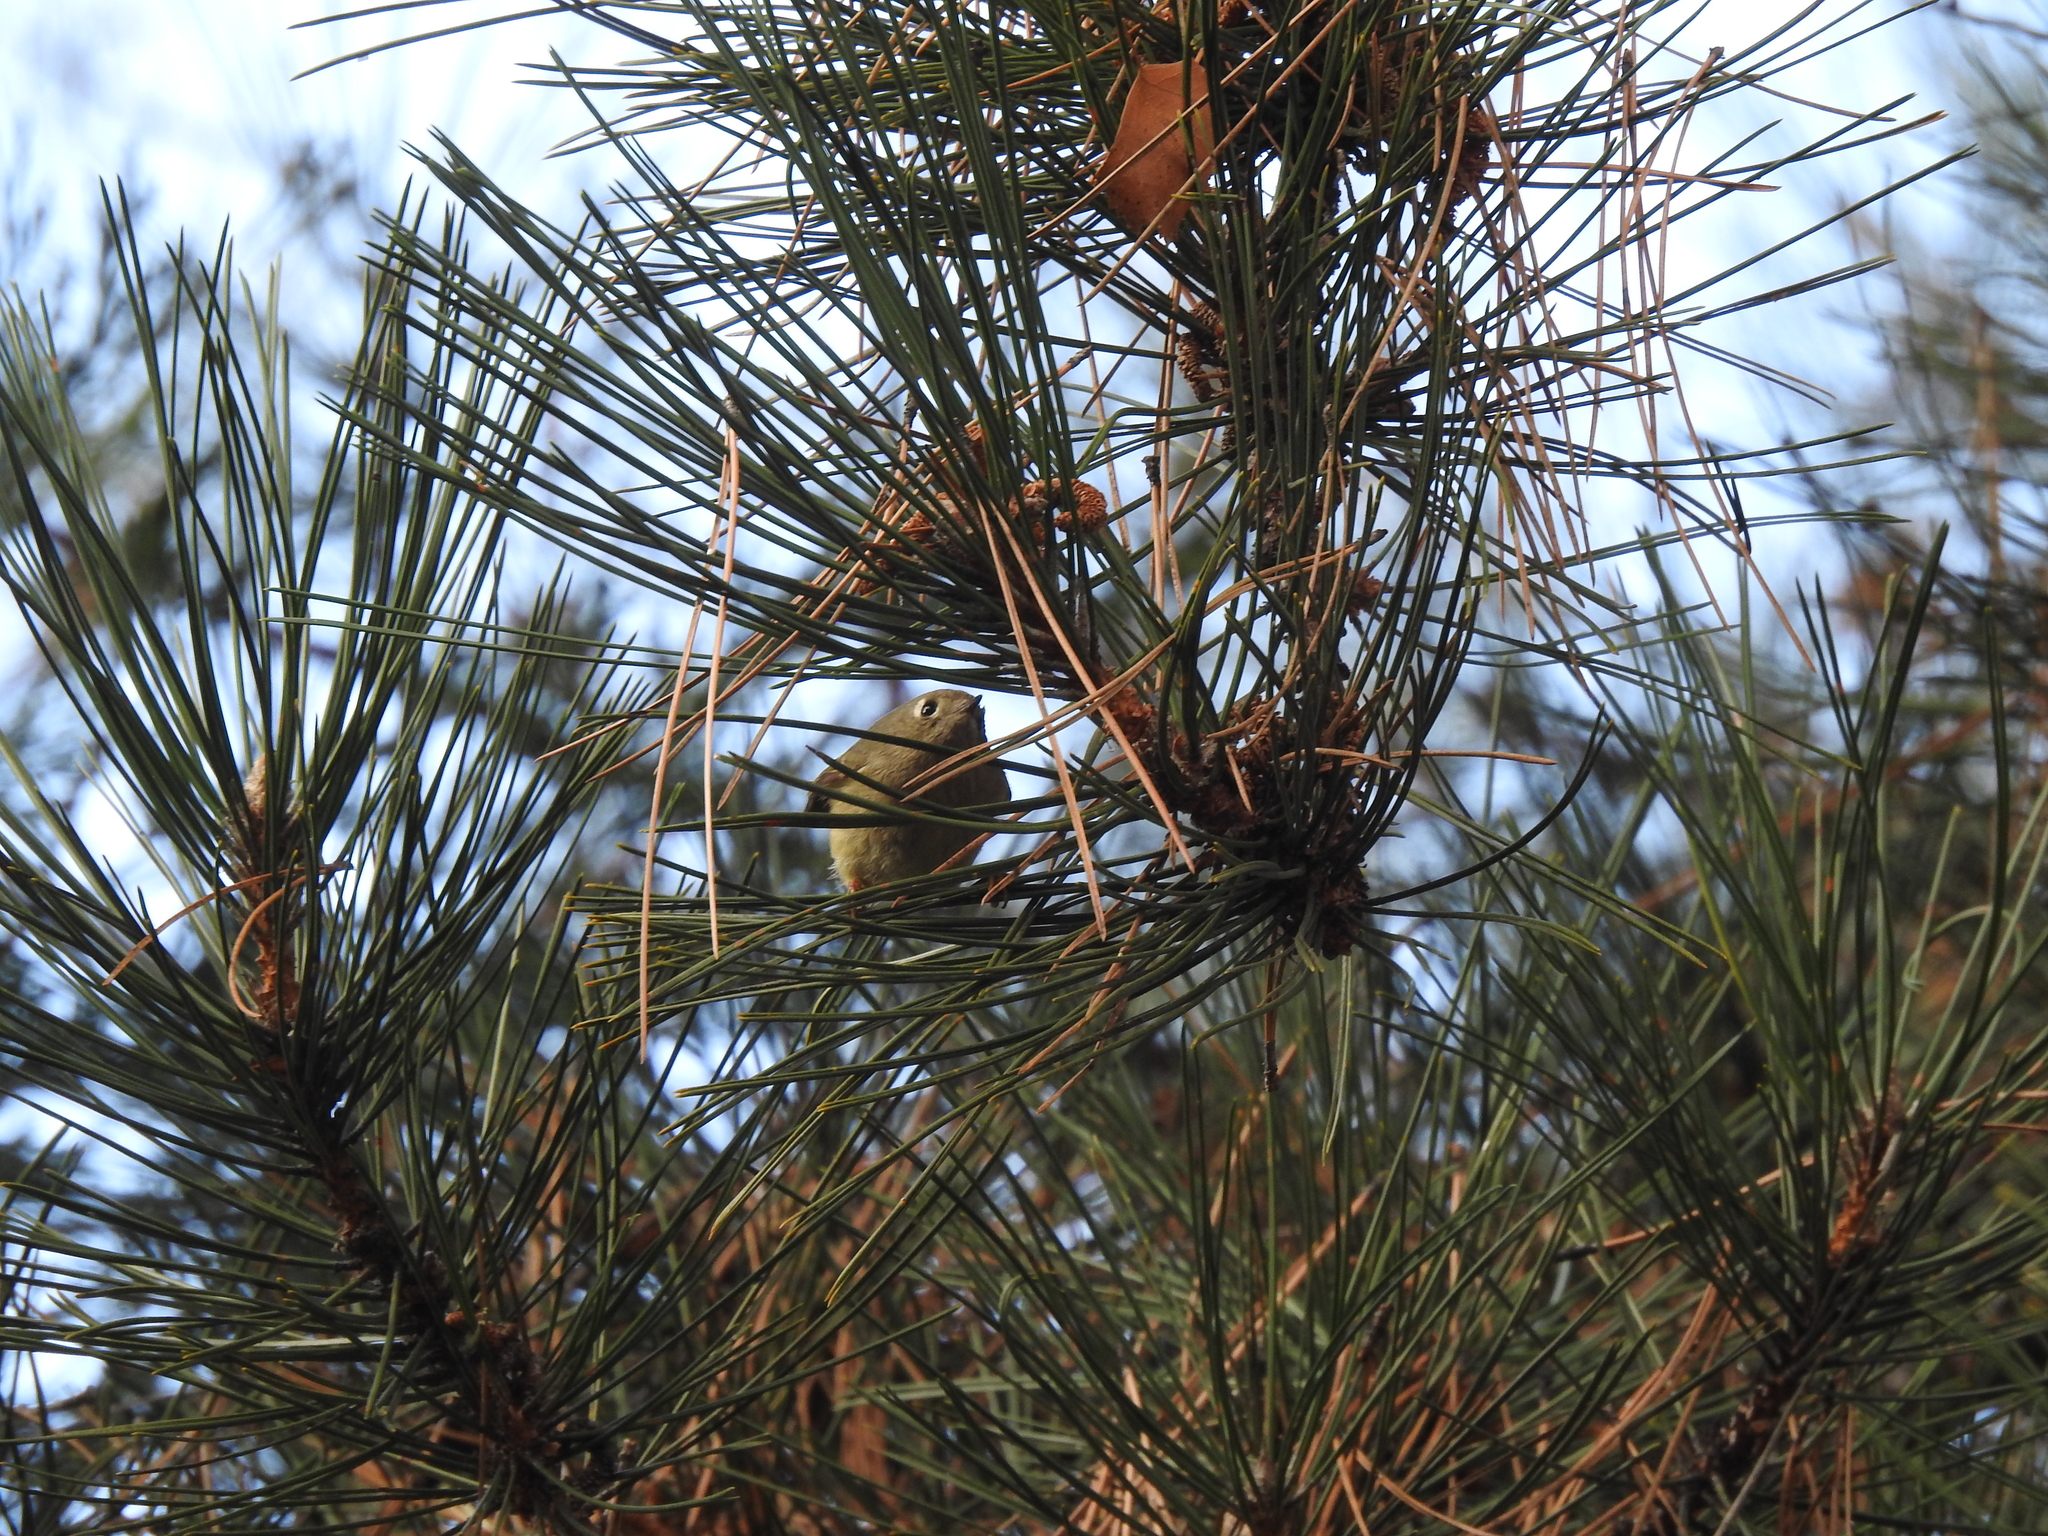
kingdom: Animalia
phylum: Chordata
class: Aves
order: Passeriformes
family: Regulidae
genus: Regulus
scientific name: Regulus calendula
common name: Ruby-crowned kinglet
